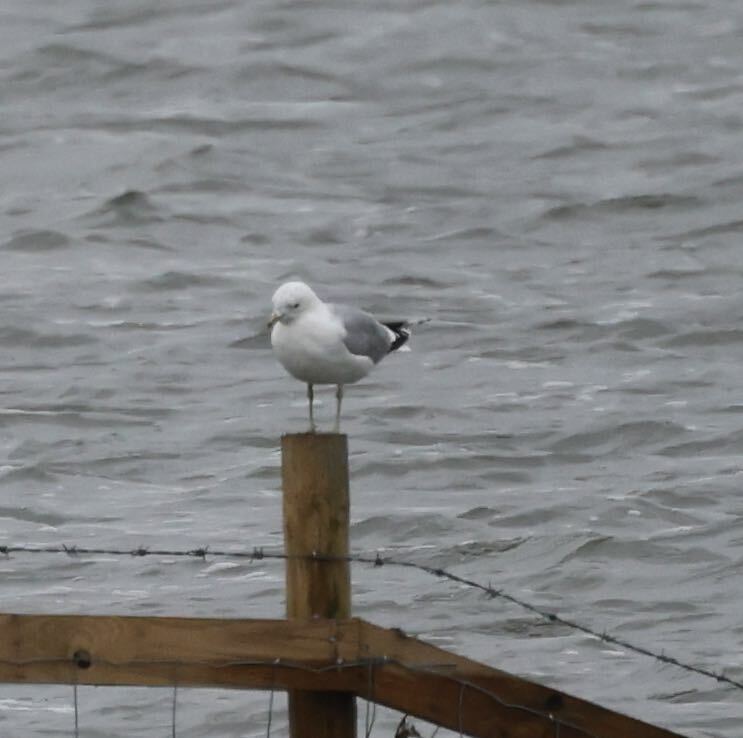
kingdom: Animalia
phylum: Chordata
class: Aves
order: Charadriiformes
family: Laridae
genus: Larus
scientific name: Larus canus
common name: Mew gull
